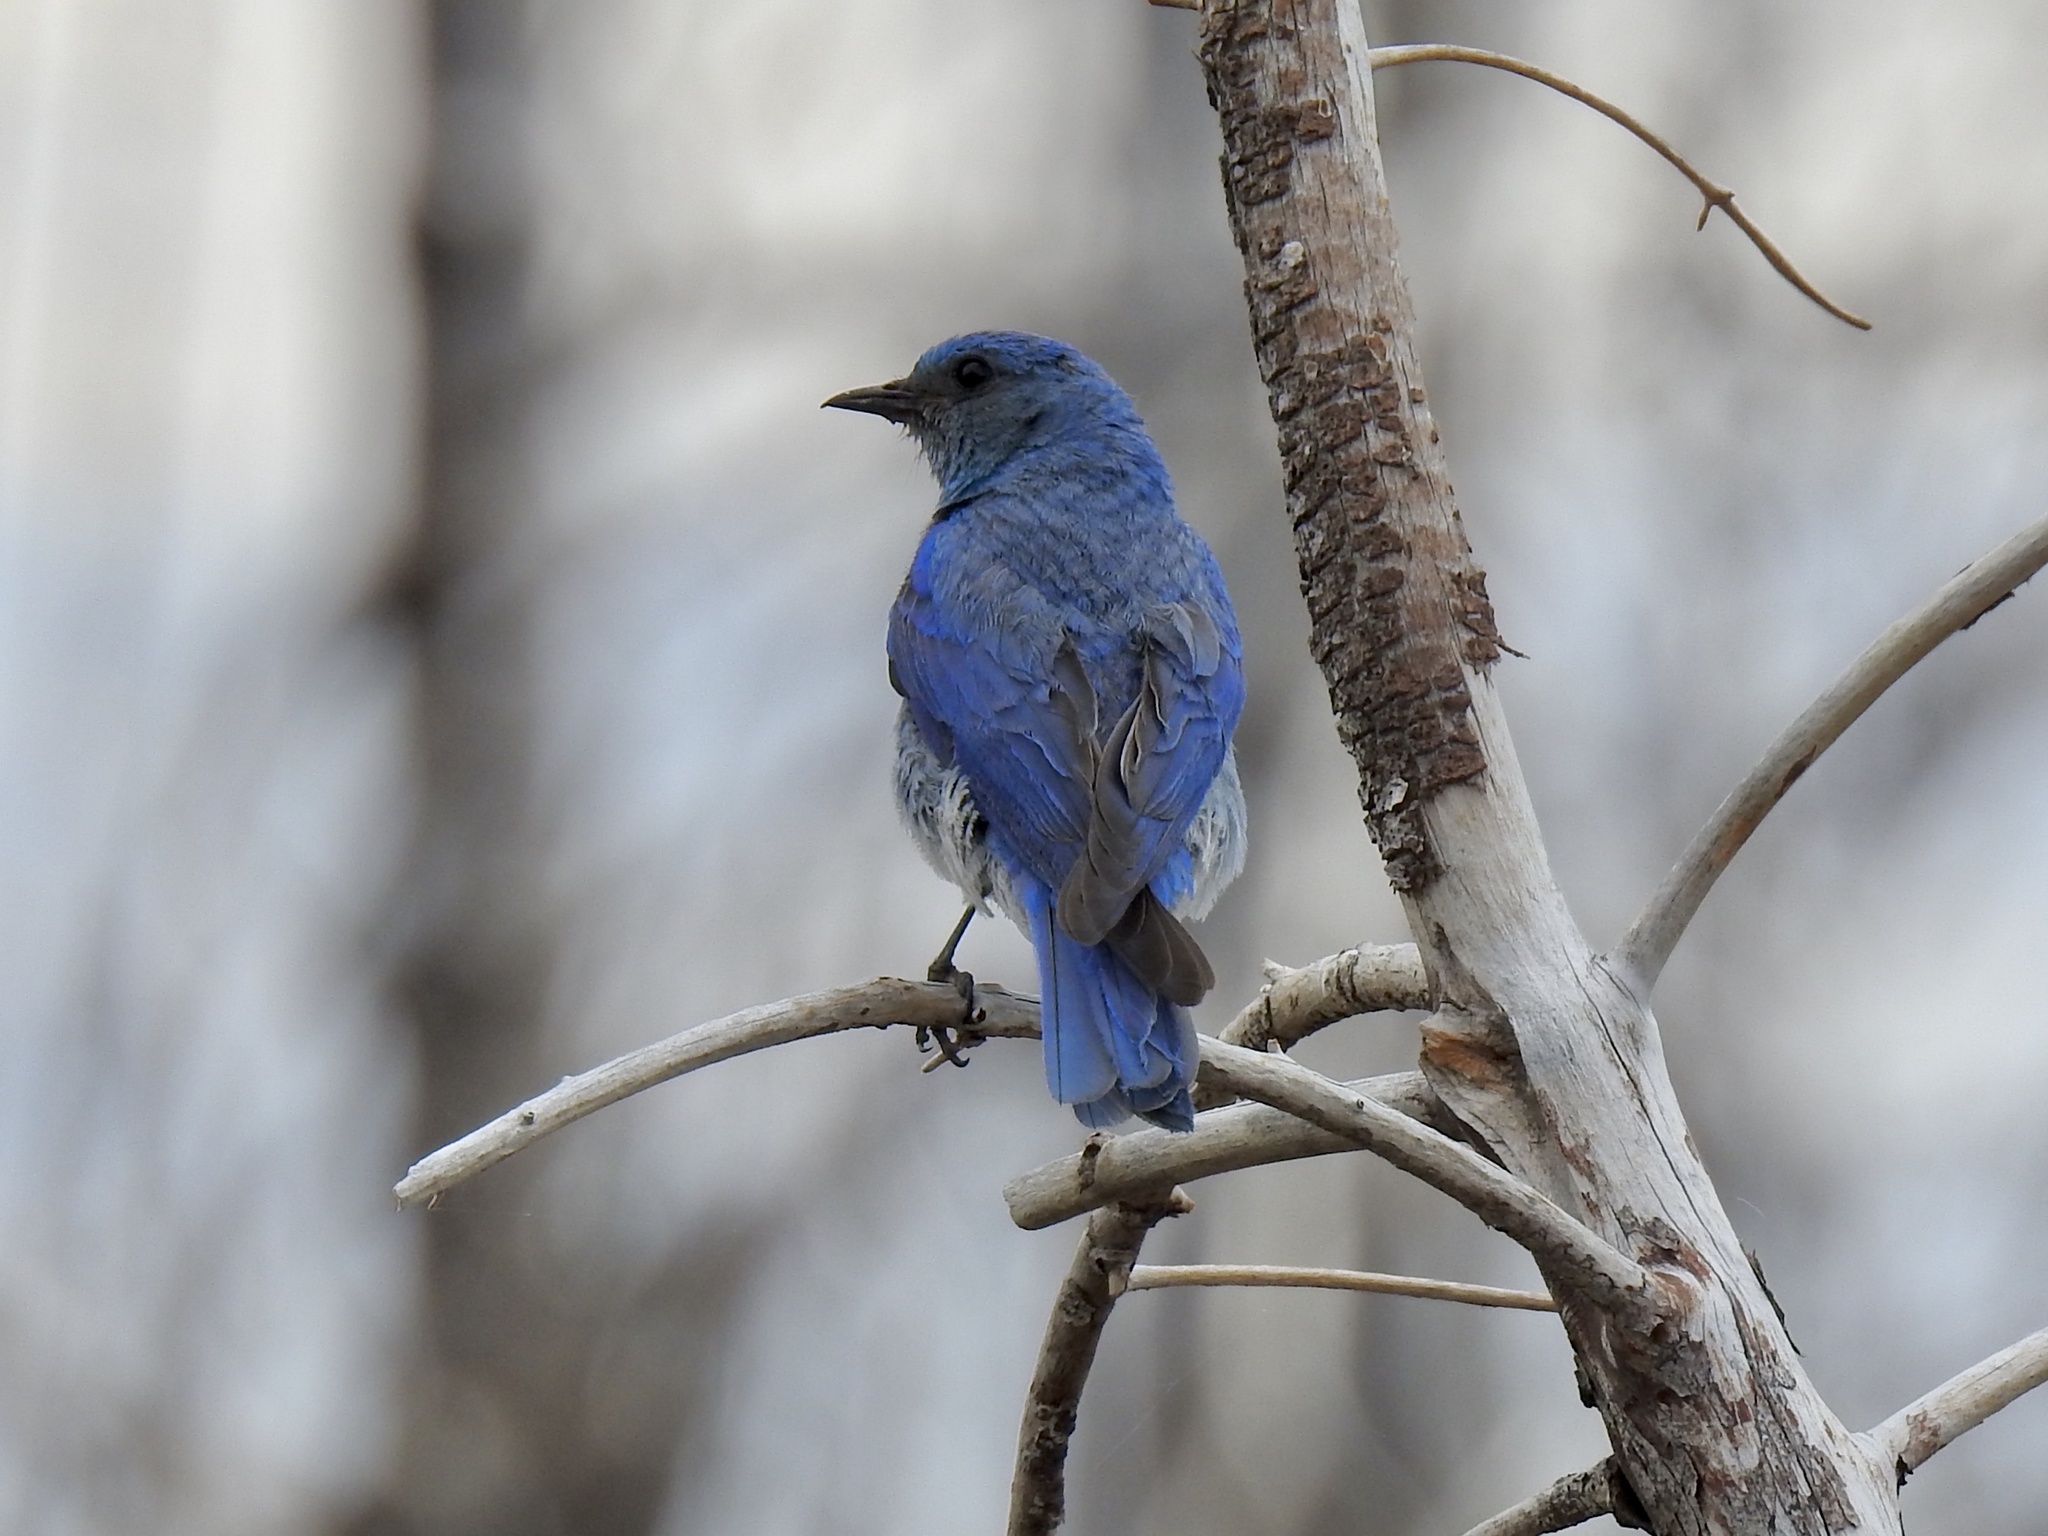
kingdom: Animalia
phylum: Chordata
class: Aves
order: Passeriformes
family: Turdidae
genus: Sialia
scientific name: Sialia currucoides
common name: Mountain bluebird
